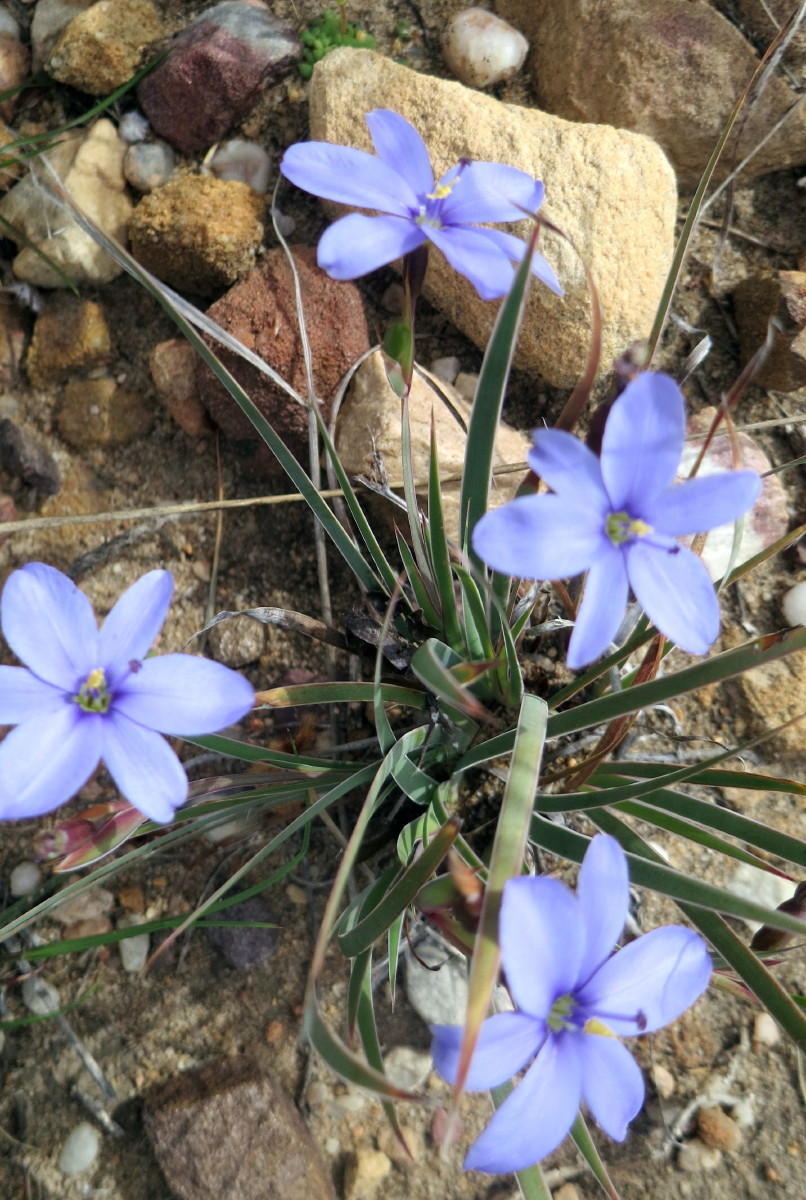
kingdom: Plantae
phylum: Tracheophyta
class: Liliopsida
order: Asparagales
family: Iridaceae
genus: Aristea
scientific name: Aristea nana
